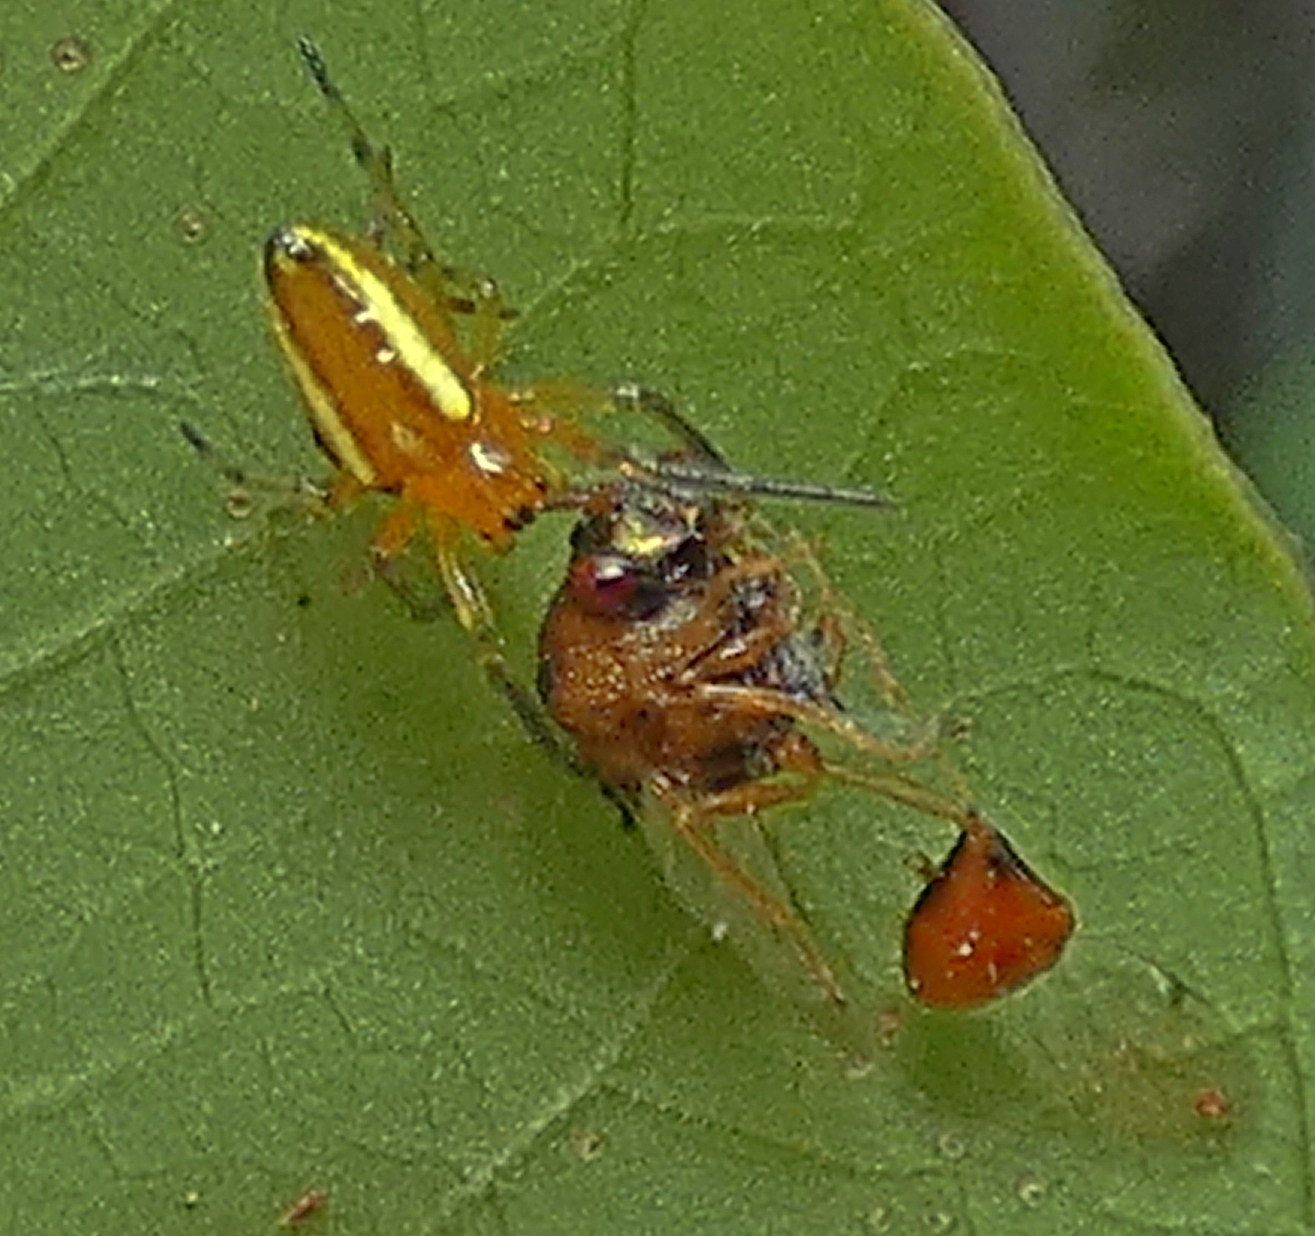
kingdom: Animalia
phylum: Arthropoda
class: Arachnida
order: Araneae
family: Araneidae
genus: Alpaida
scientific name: Alpaida bicornuta
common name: Orb weavers
